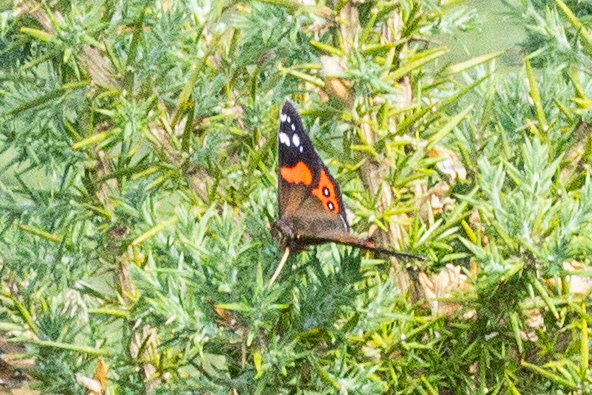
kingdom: Animalia
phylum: Arthropoda
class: Insecta
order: Lepidoptera
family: Nymphalidae
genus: Vanessa
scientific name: Vanessa gonerilla
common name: New zealand red admiral
